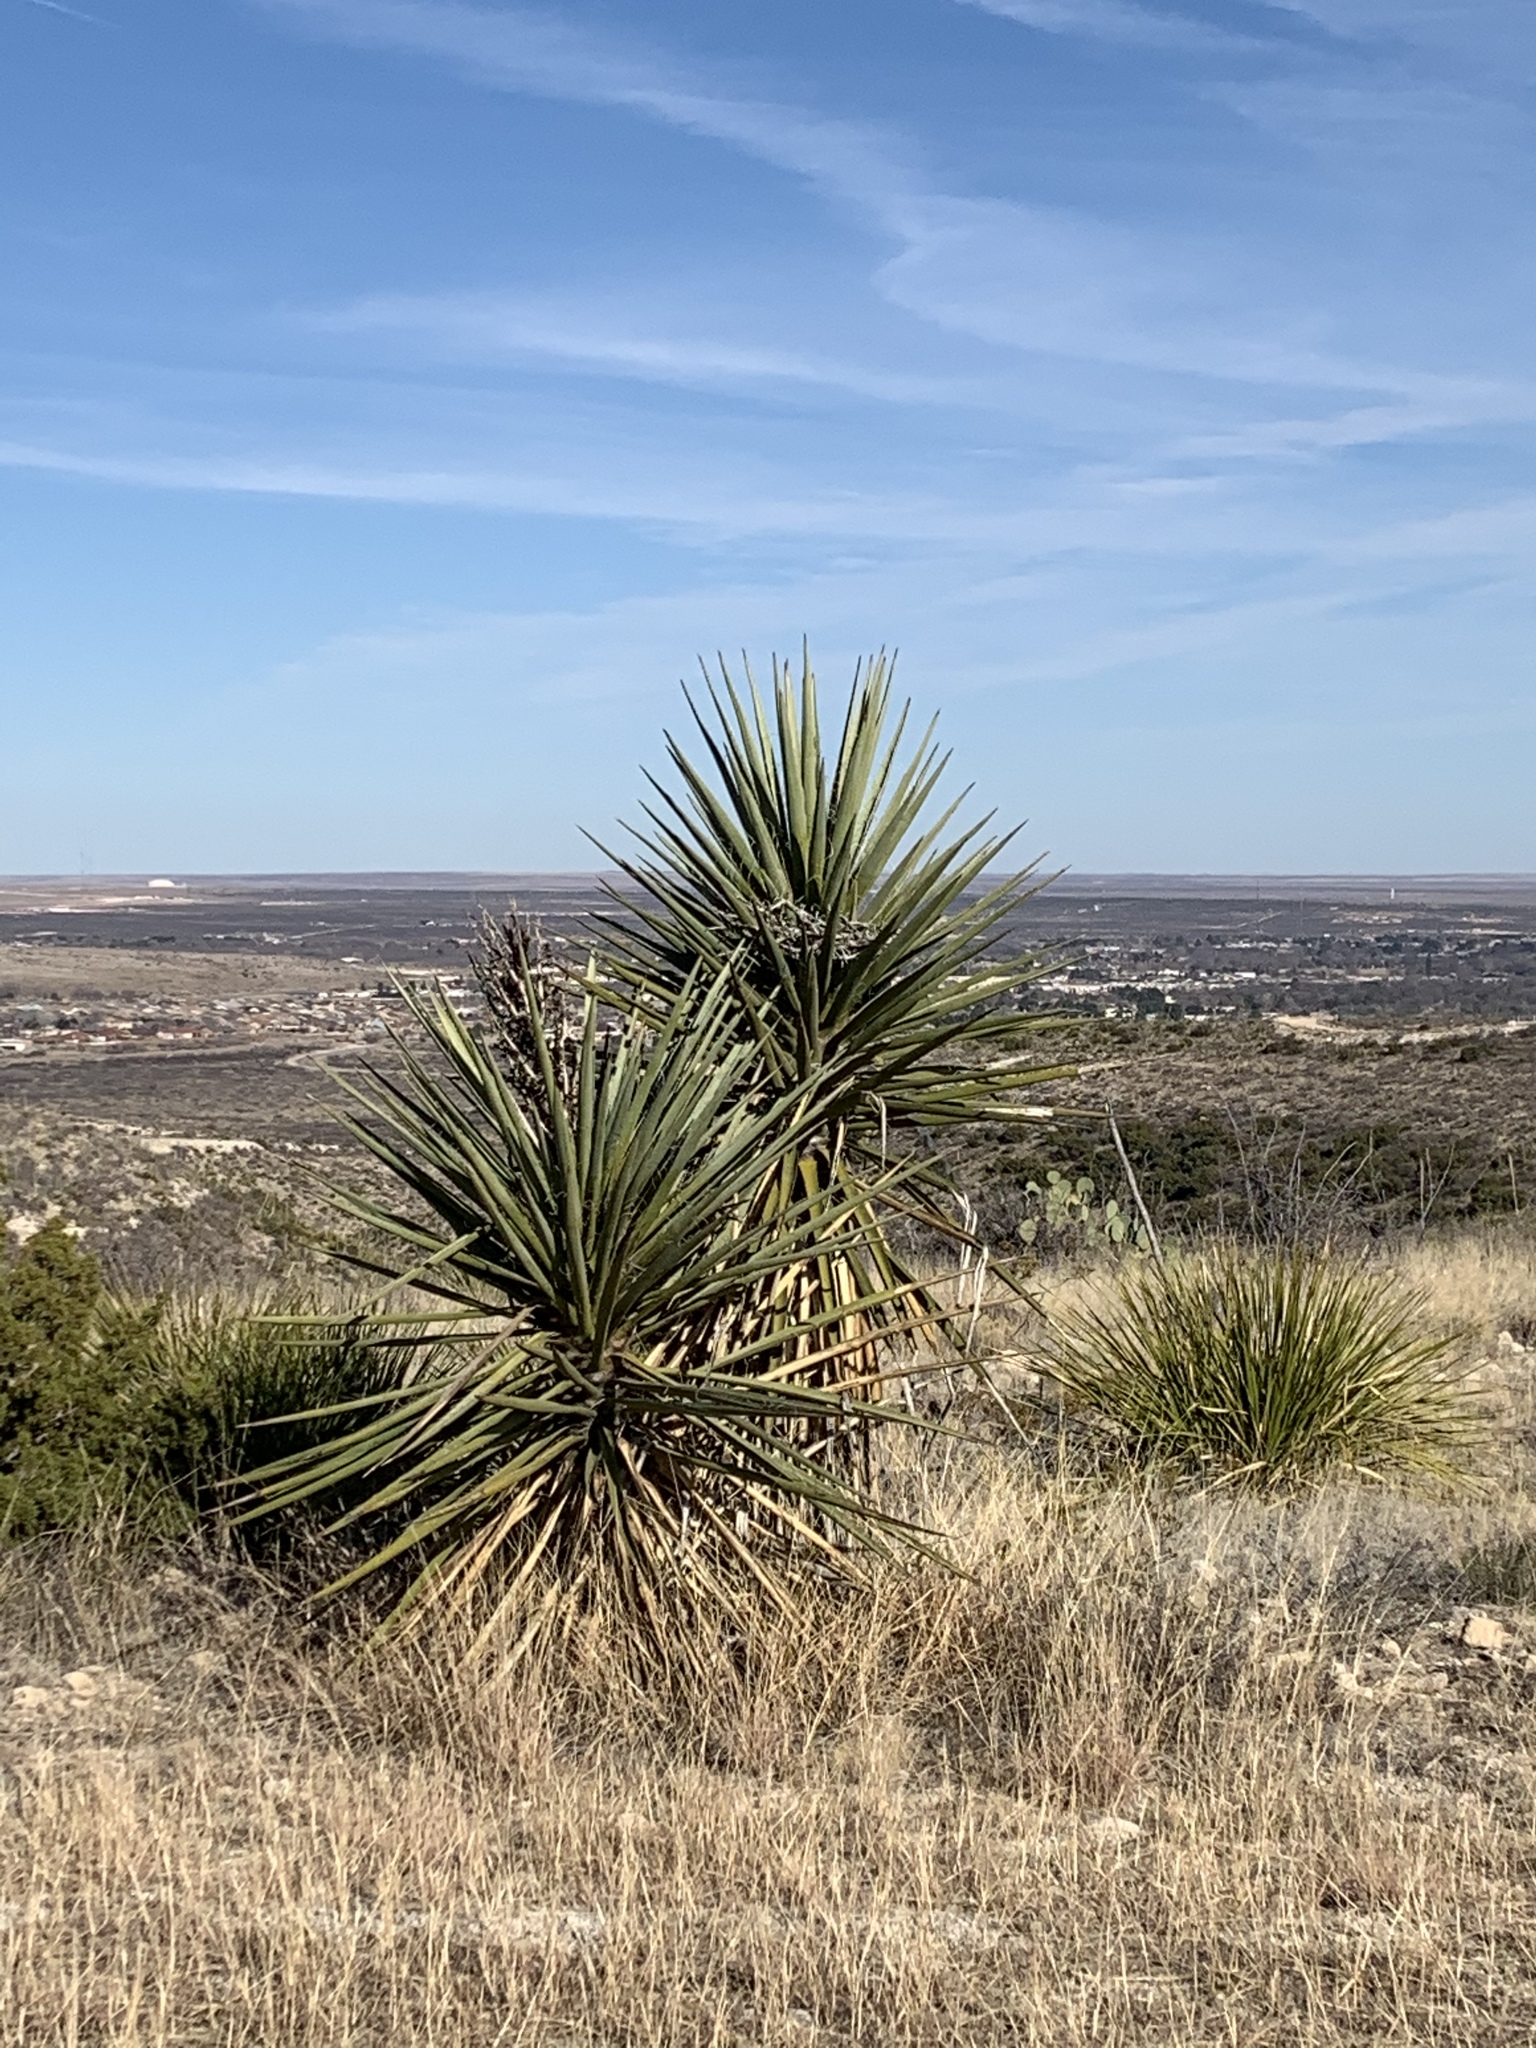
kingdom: Plantae
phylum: Tracheophyta
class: Liliopsida
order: Asparagales
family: Asparagaceae
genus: Yucca
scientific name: Yucca treculiana
